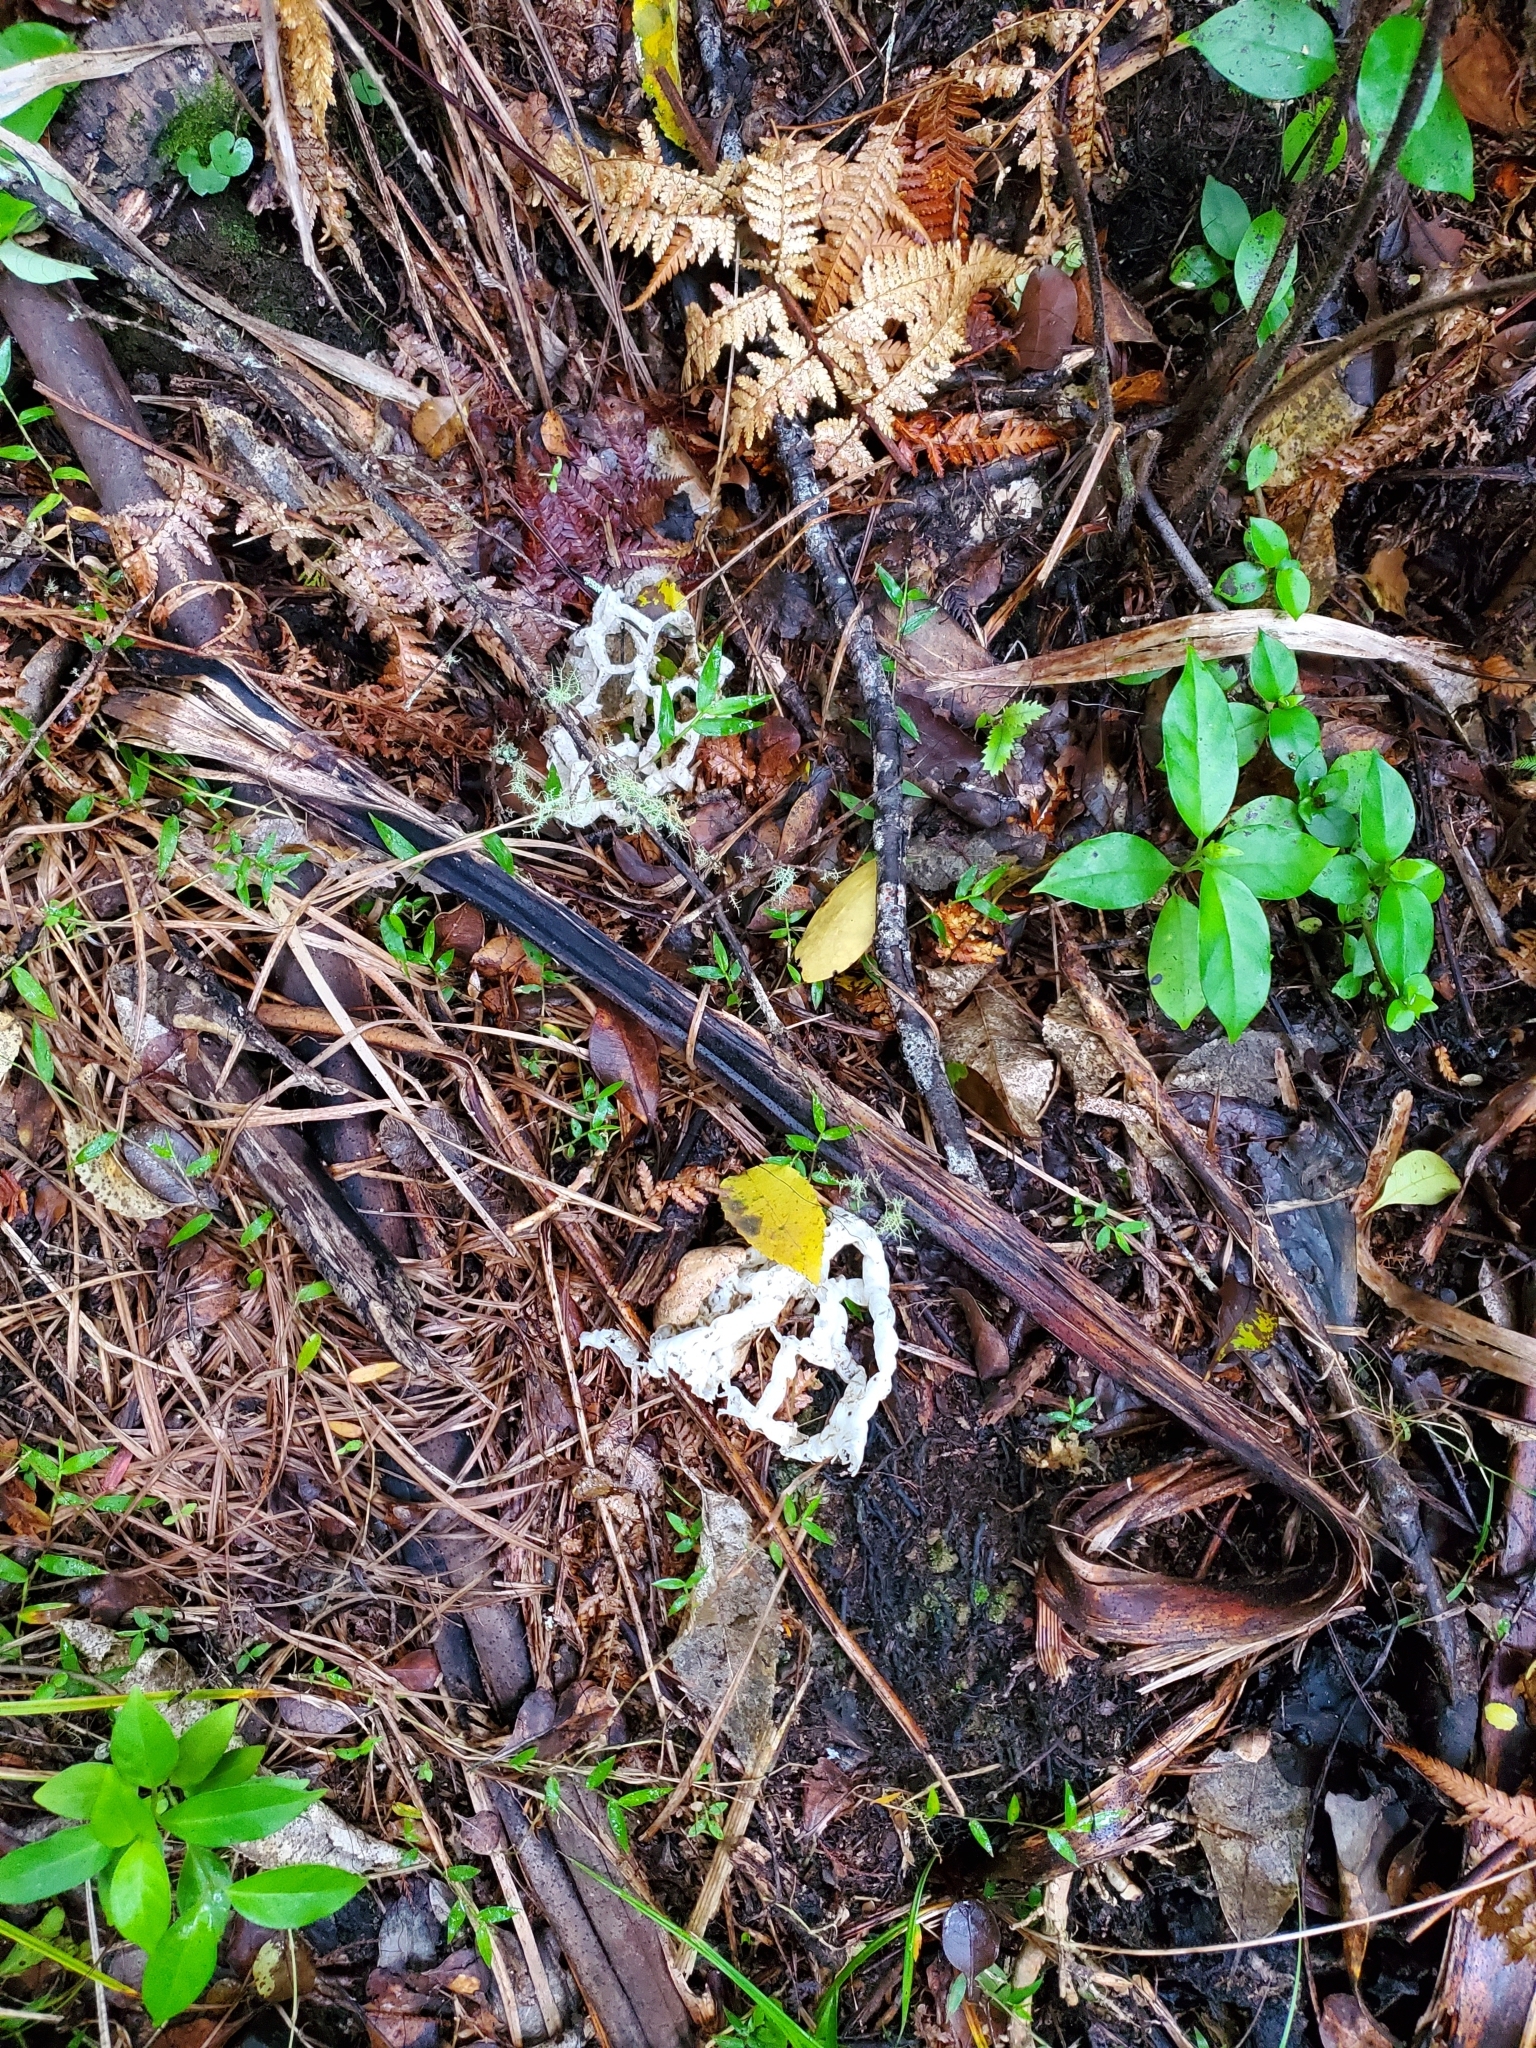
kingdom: Fungi
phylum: Basidiomycota
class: Agaricomycetes
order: Phallales
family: Phallaceae
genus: Ileodictyon
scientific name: Ileodictyon cibarium
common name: Basket fungus
